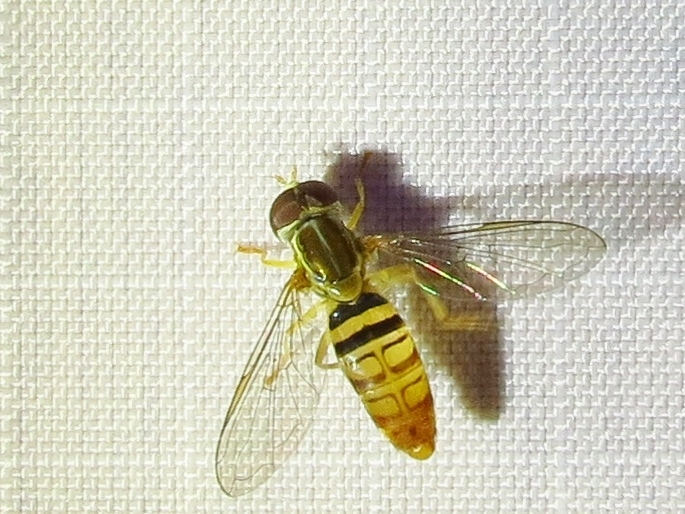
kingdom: Animalia
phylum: Arthropoda
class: Insecta
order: Diptera
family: Syrphidae
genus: Toxomerus
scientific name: Toxomerus politus
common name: Maize calligrapher
